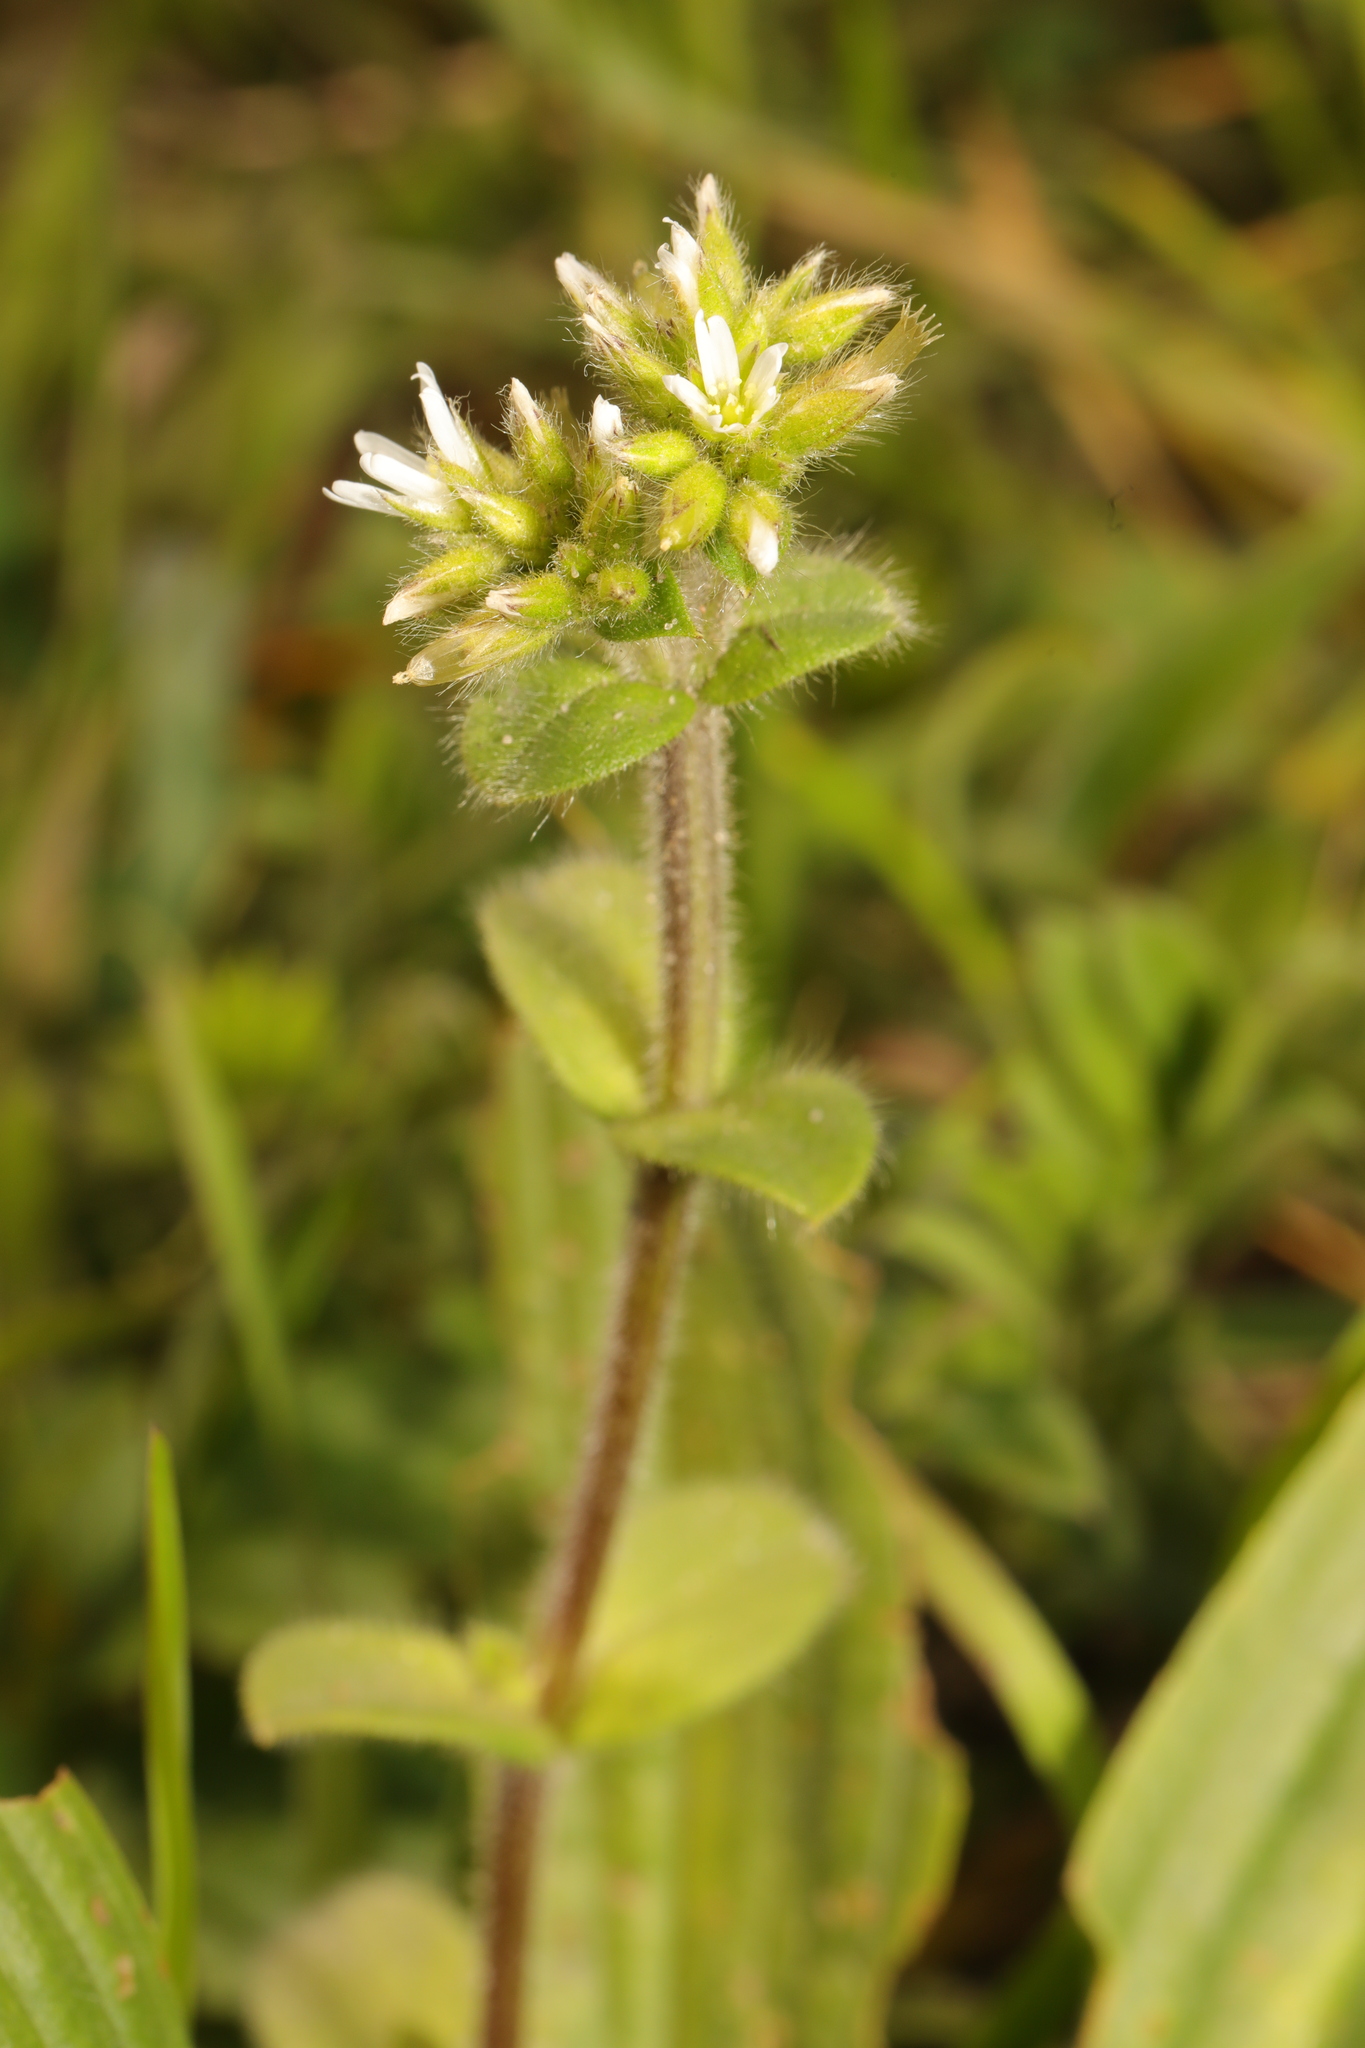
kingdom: Plantae
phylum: Tracheophyta
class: Magnoliopsida
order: Caryophyllales
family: Caryophyllaceae
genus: Cerastium
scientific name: Cerastium glomeratum
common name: Sticky chickweed
